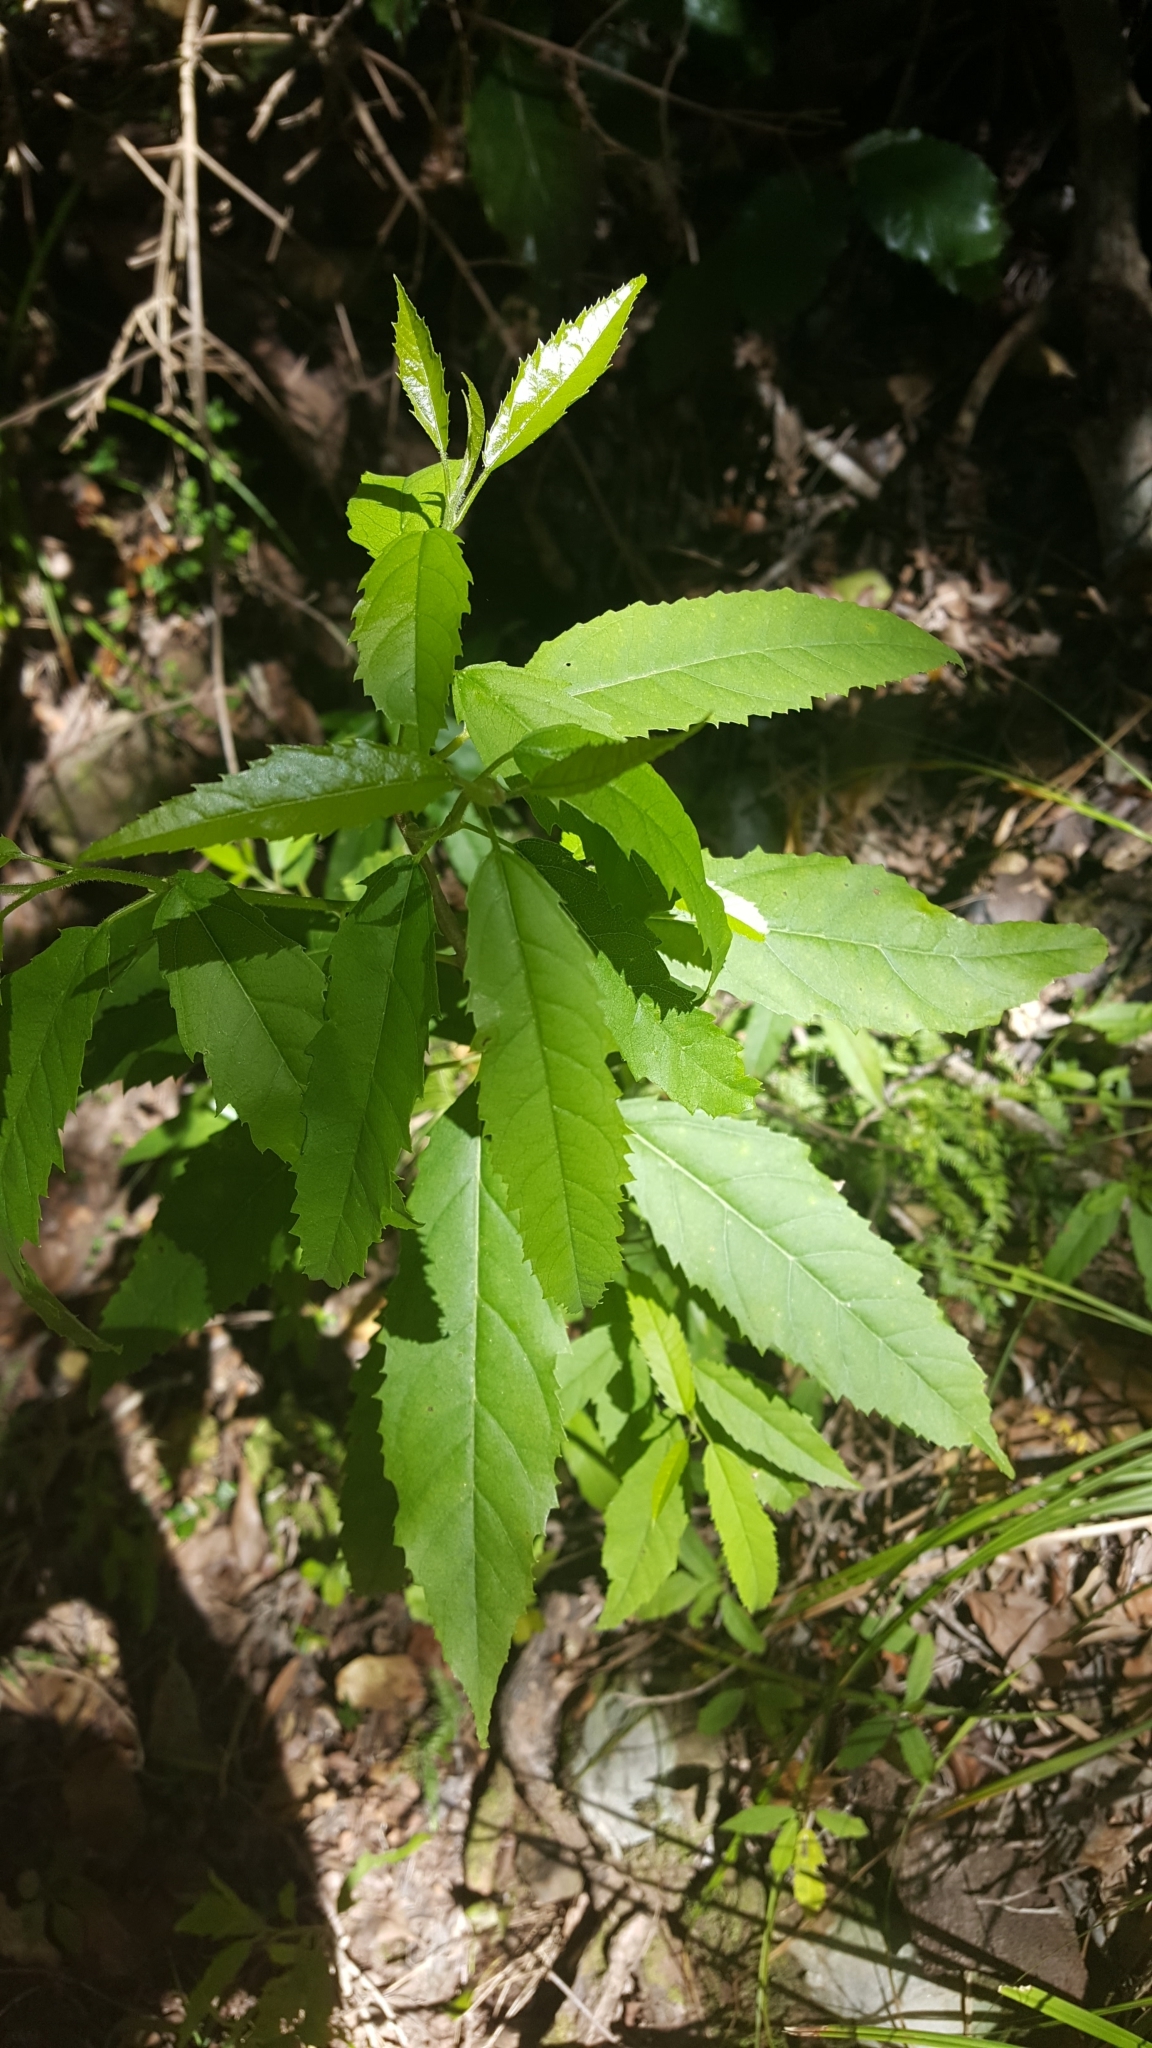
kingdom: Plantae
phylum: Tracheophyta
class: Magnoliopsida
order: Malpighiales
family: Achariaceae
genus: Kiggelaria
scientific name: Kiggelaria africana
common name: Wild peach
